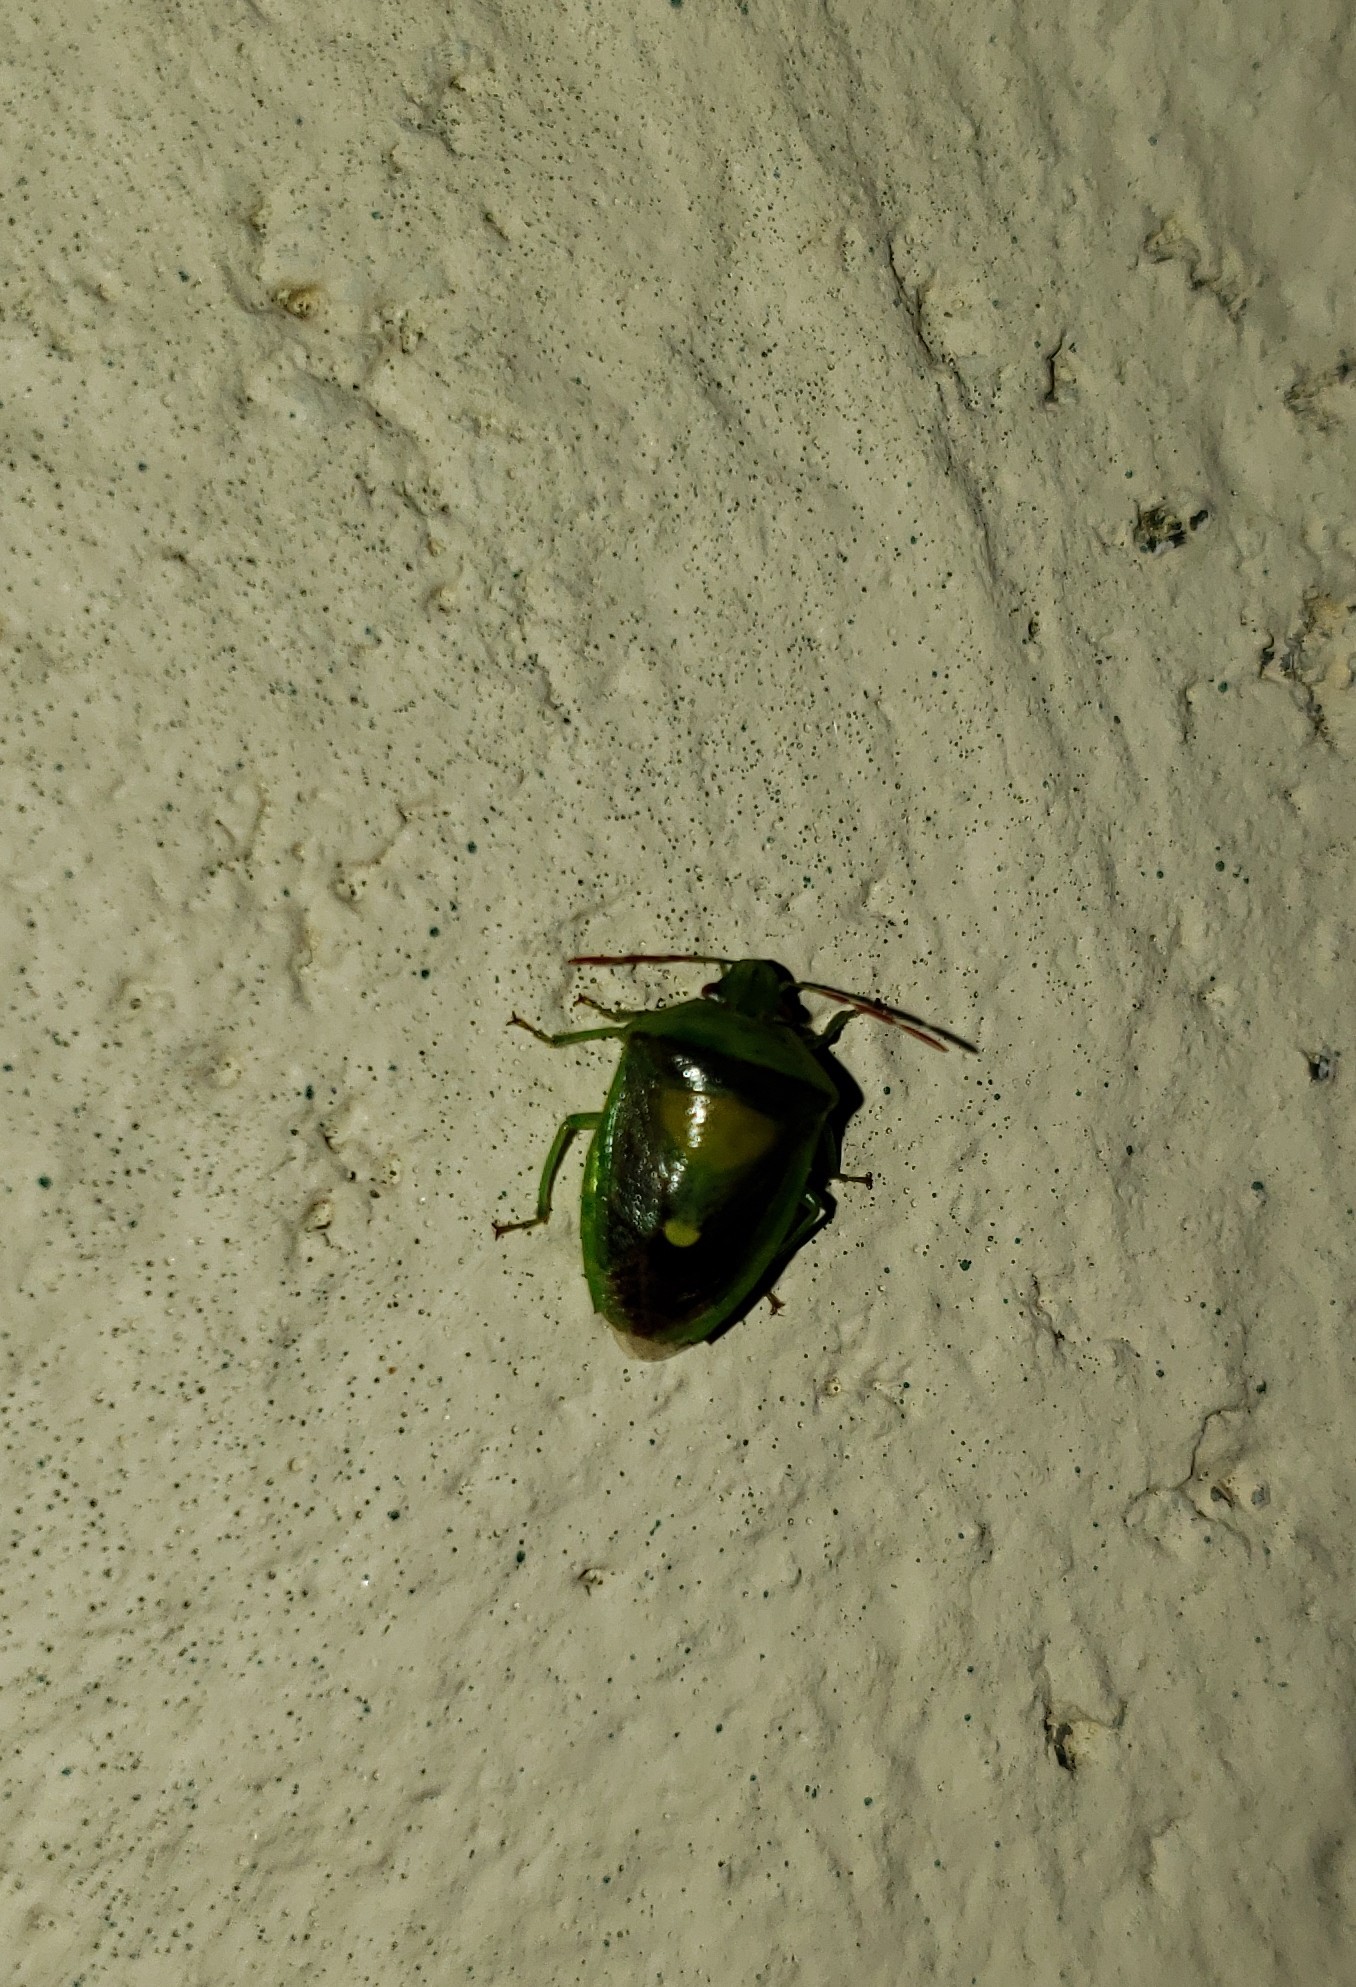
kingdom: Animalia
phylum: Arthropoda
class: Insecta
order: Hemiptera
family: Pentatomidae
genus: Banasa
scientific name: Banasa dimidiata
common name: Green burgundy stink bug
